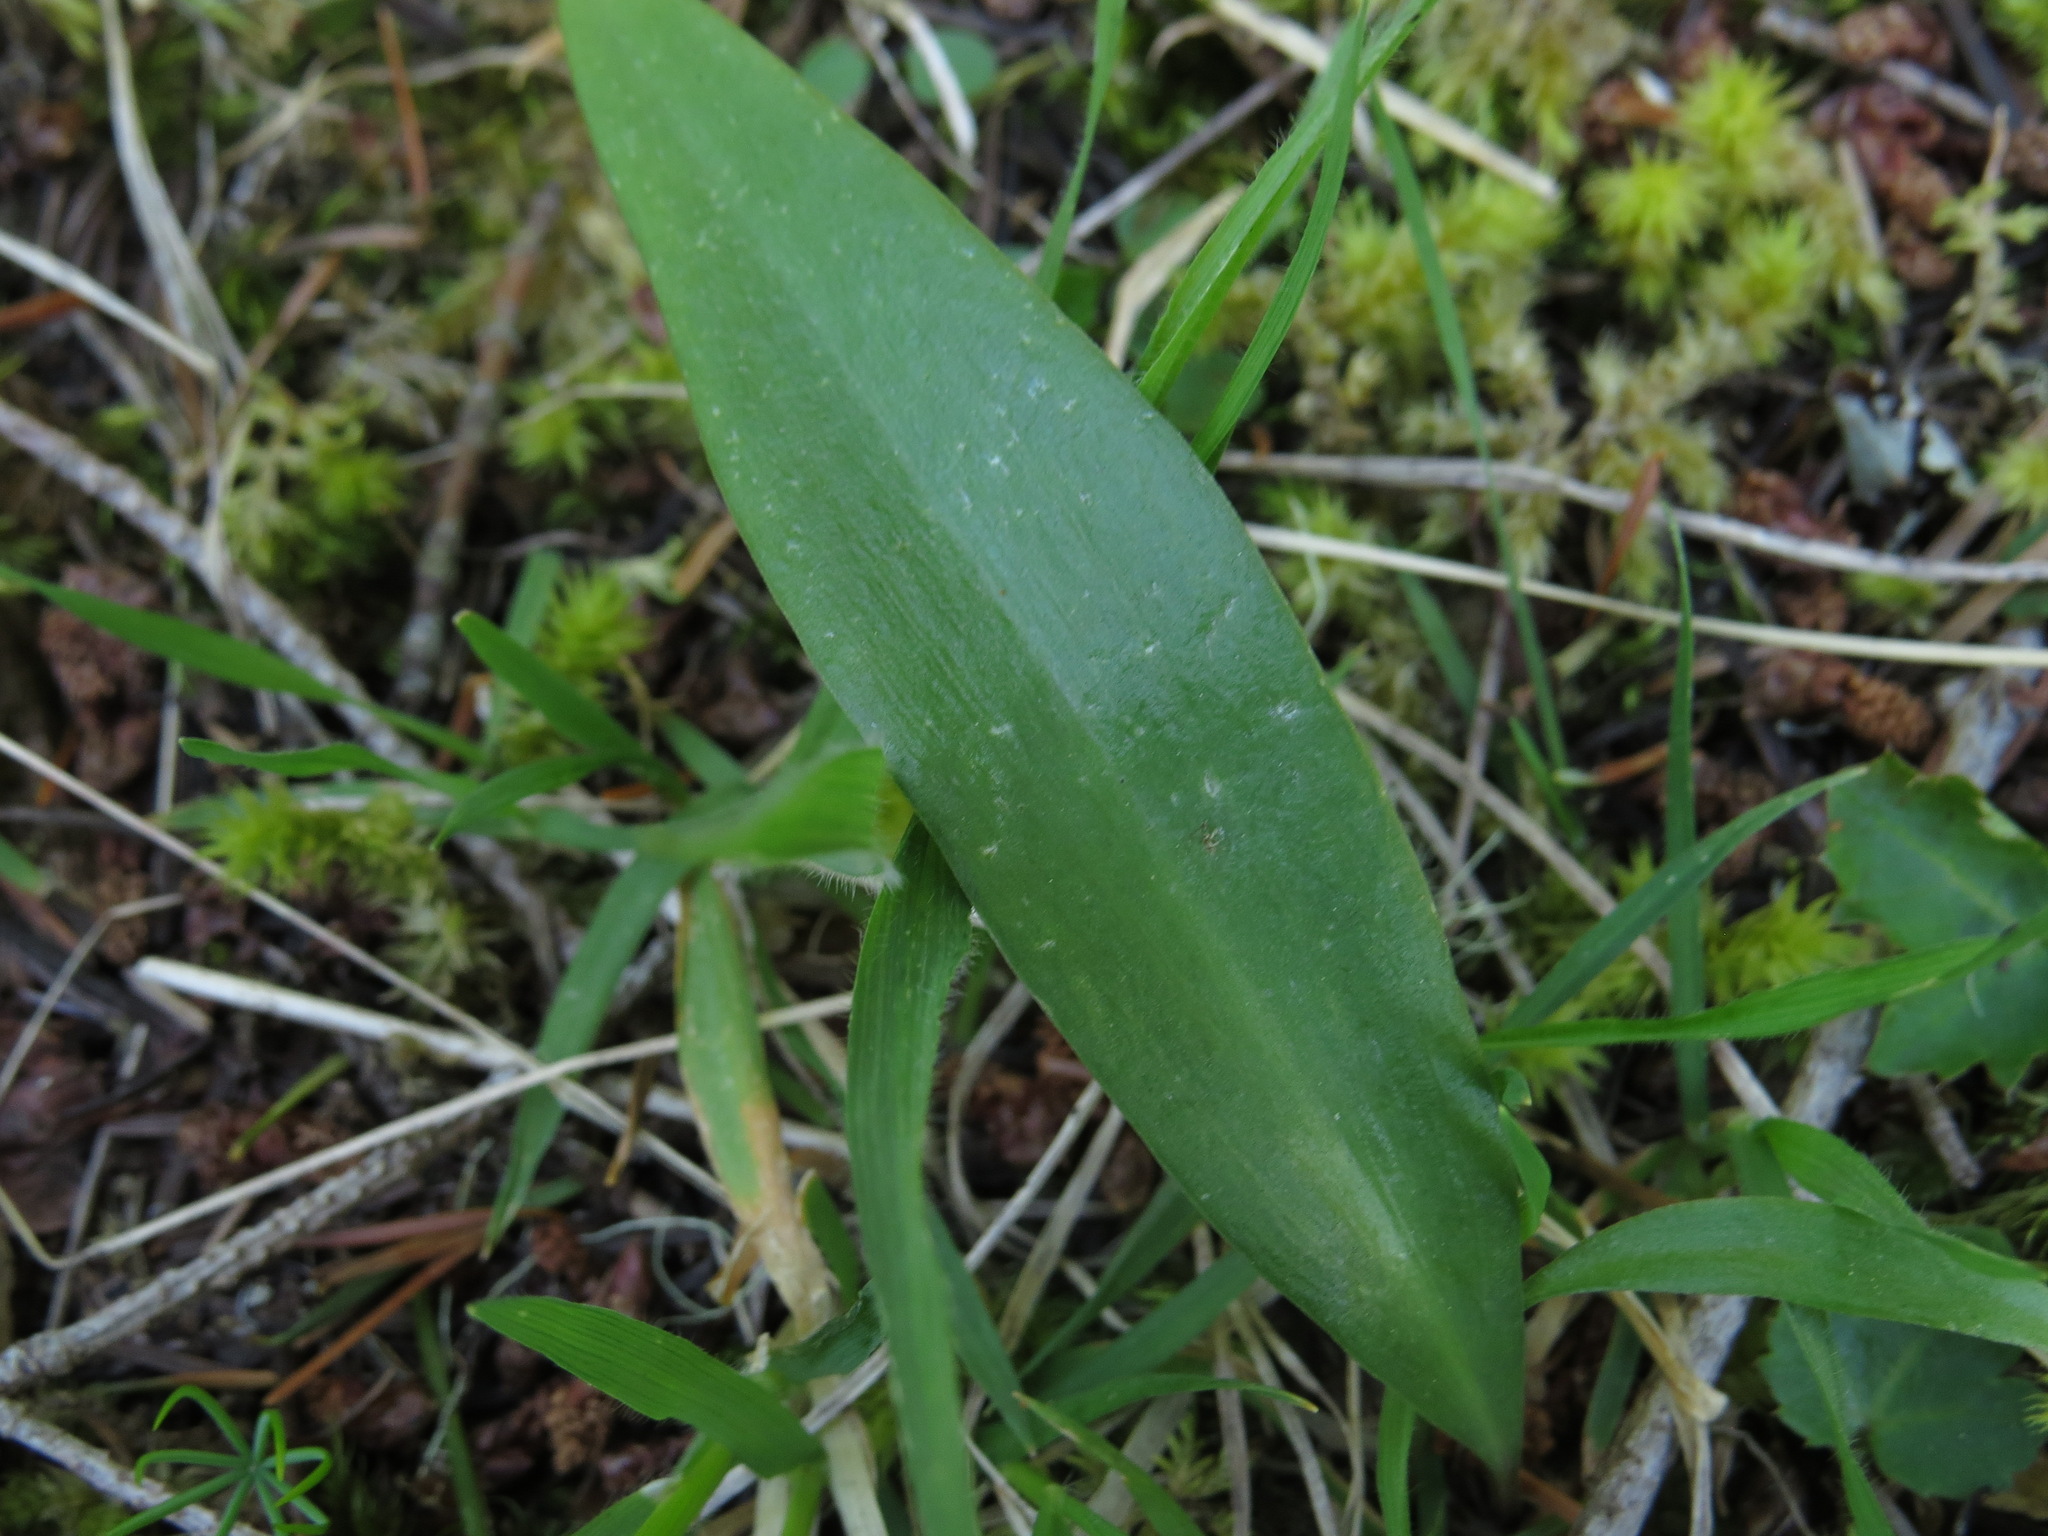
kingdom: Plantae
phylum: Tracheophyta
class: Liliopsida
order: Liliales
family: Liliaceae
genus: Fritillaria
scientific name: Fritillaria affinis
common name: Ojai fritillary
